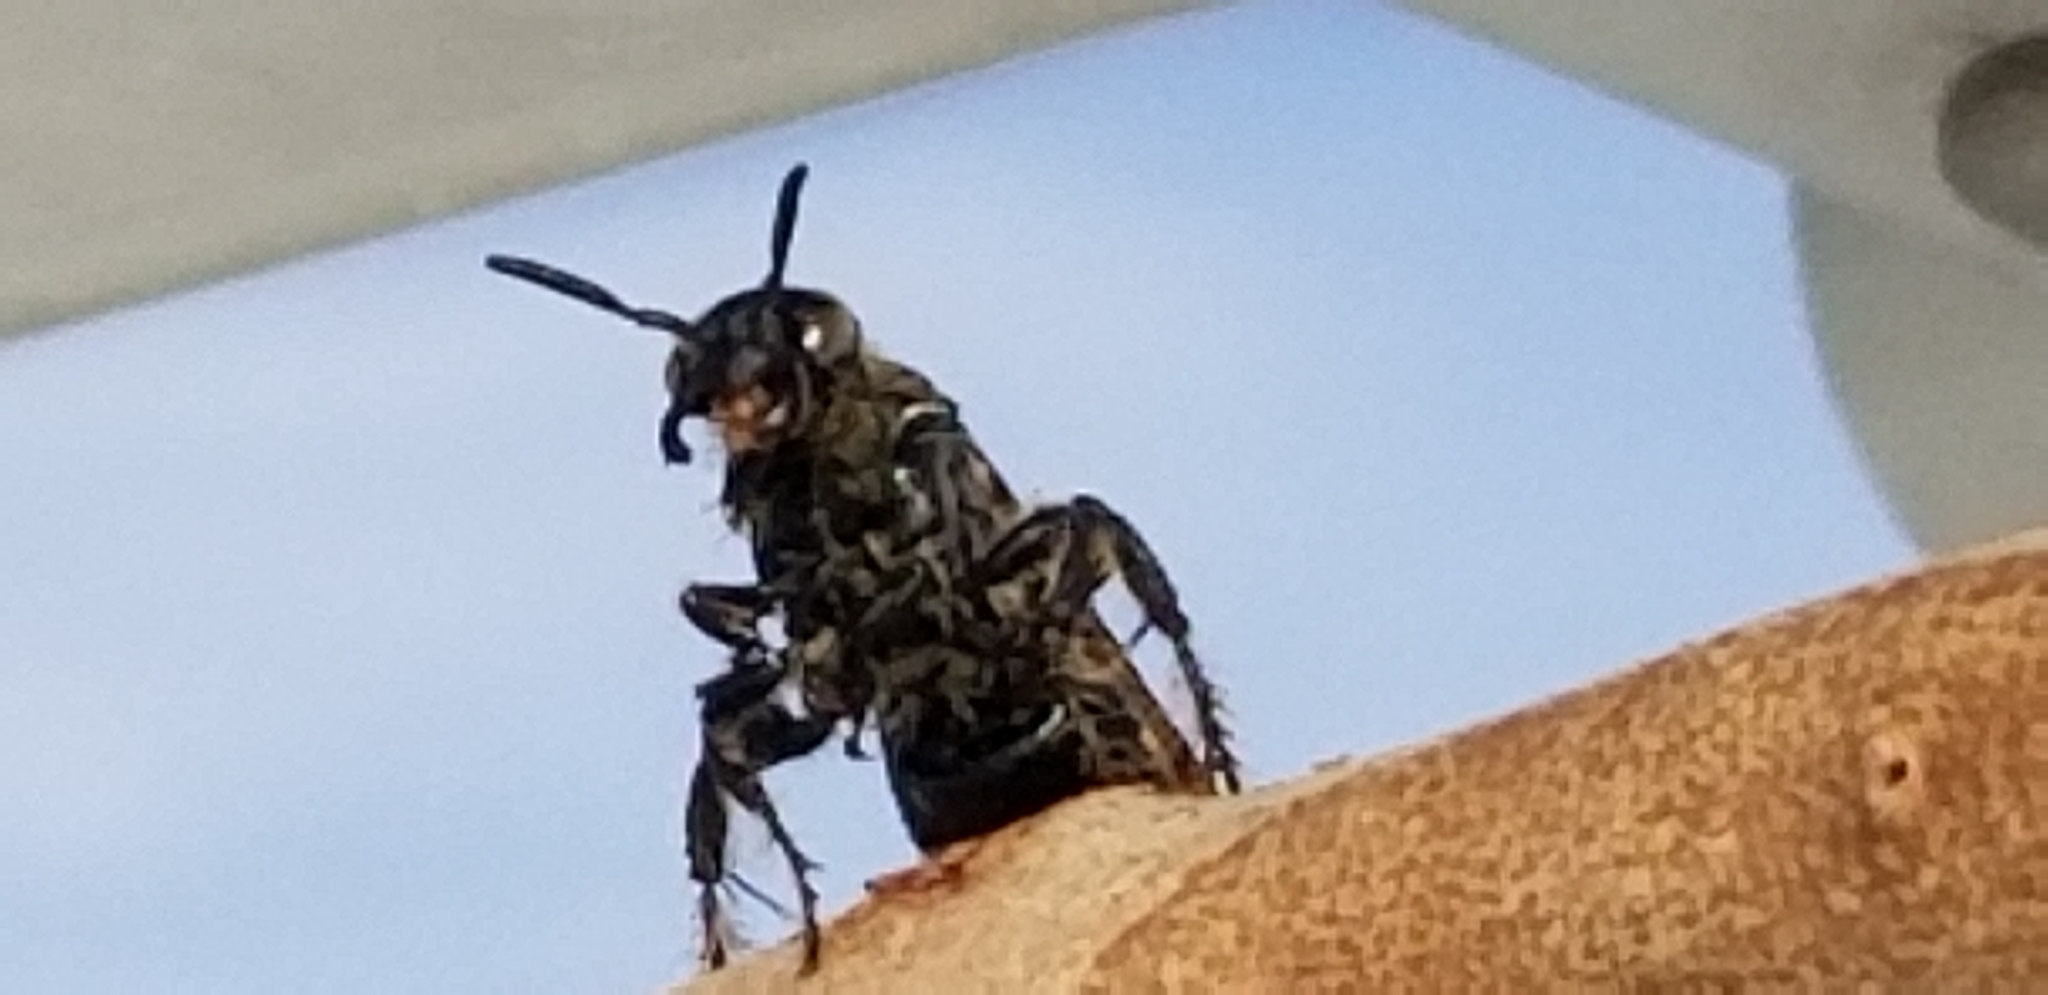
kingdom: Animalia
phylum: Arthropoda
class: Insecta
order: Hymenoptera
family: Scoliidae
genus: Dielis
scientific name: Dielis tolteca
